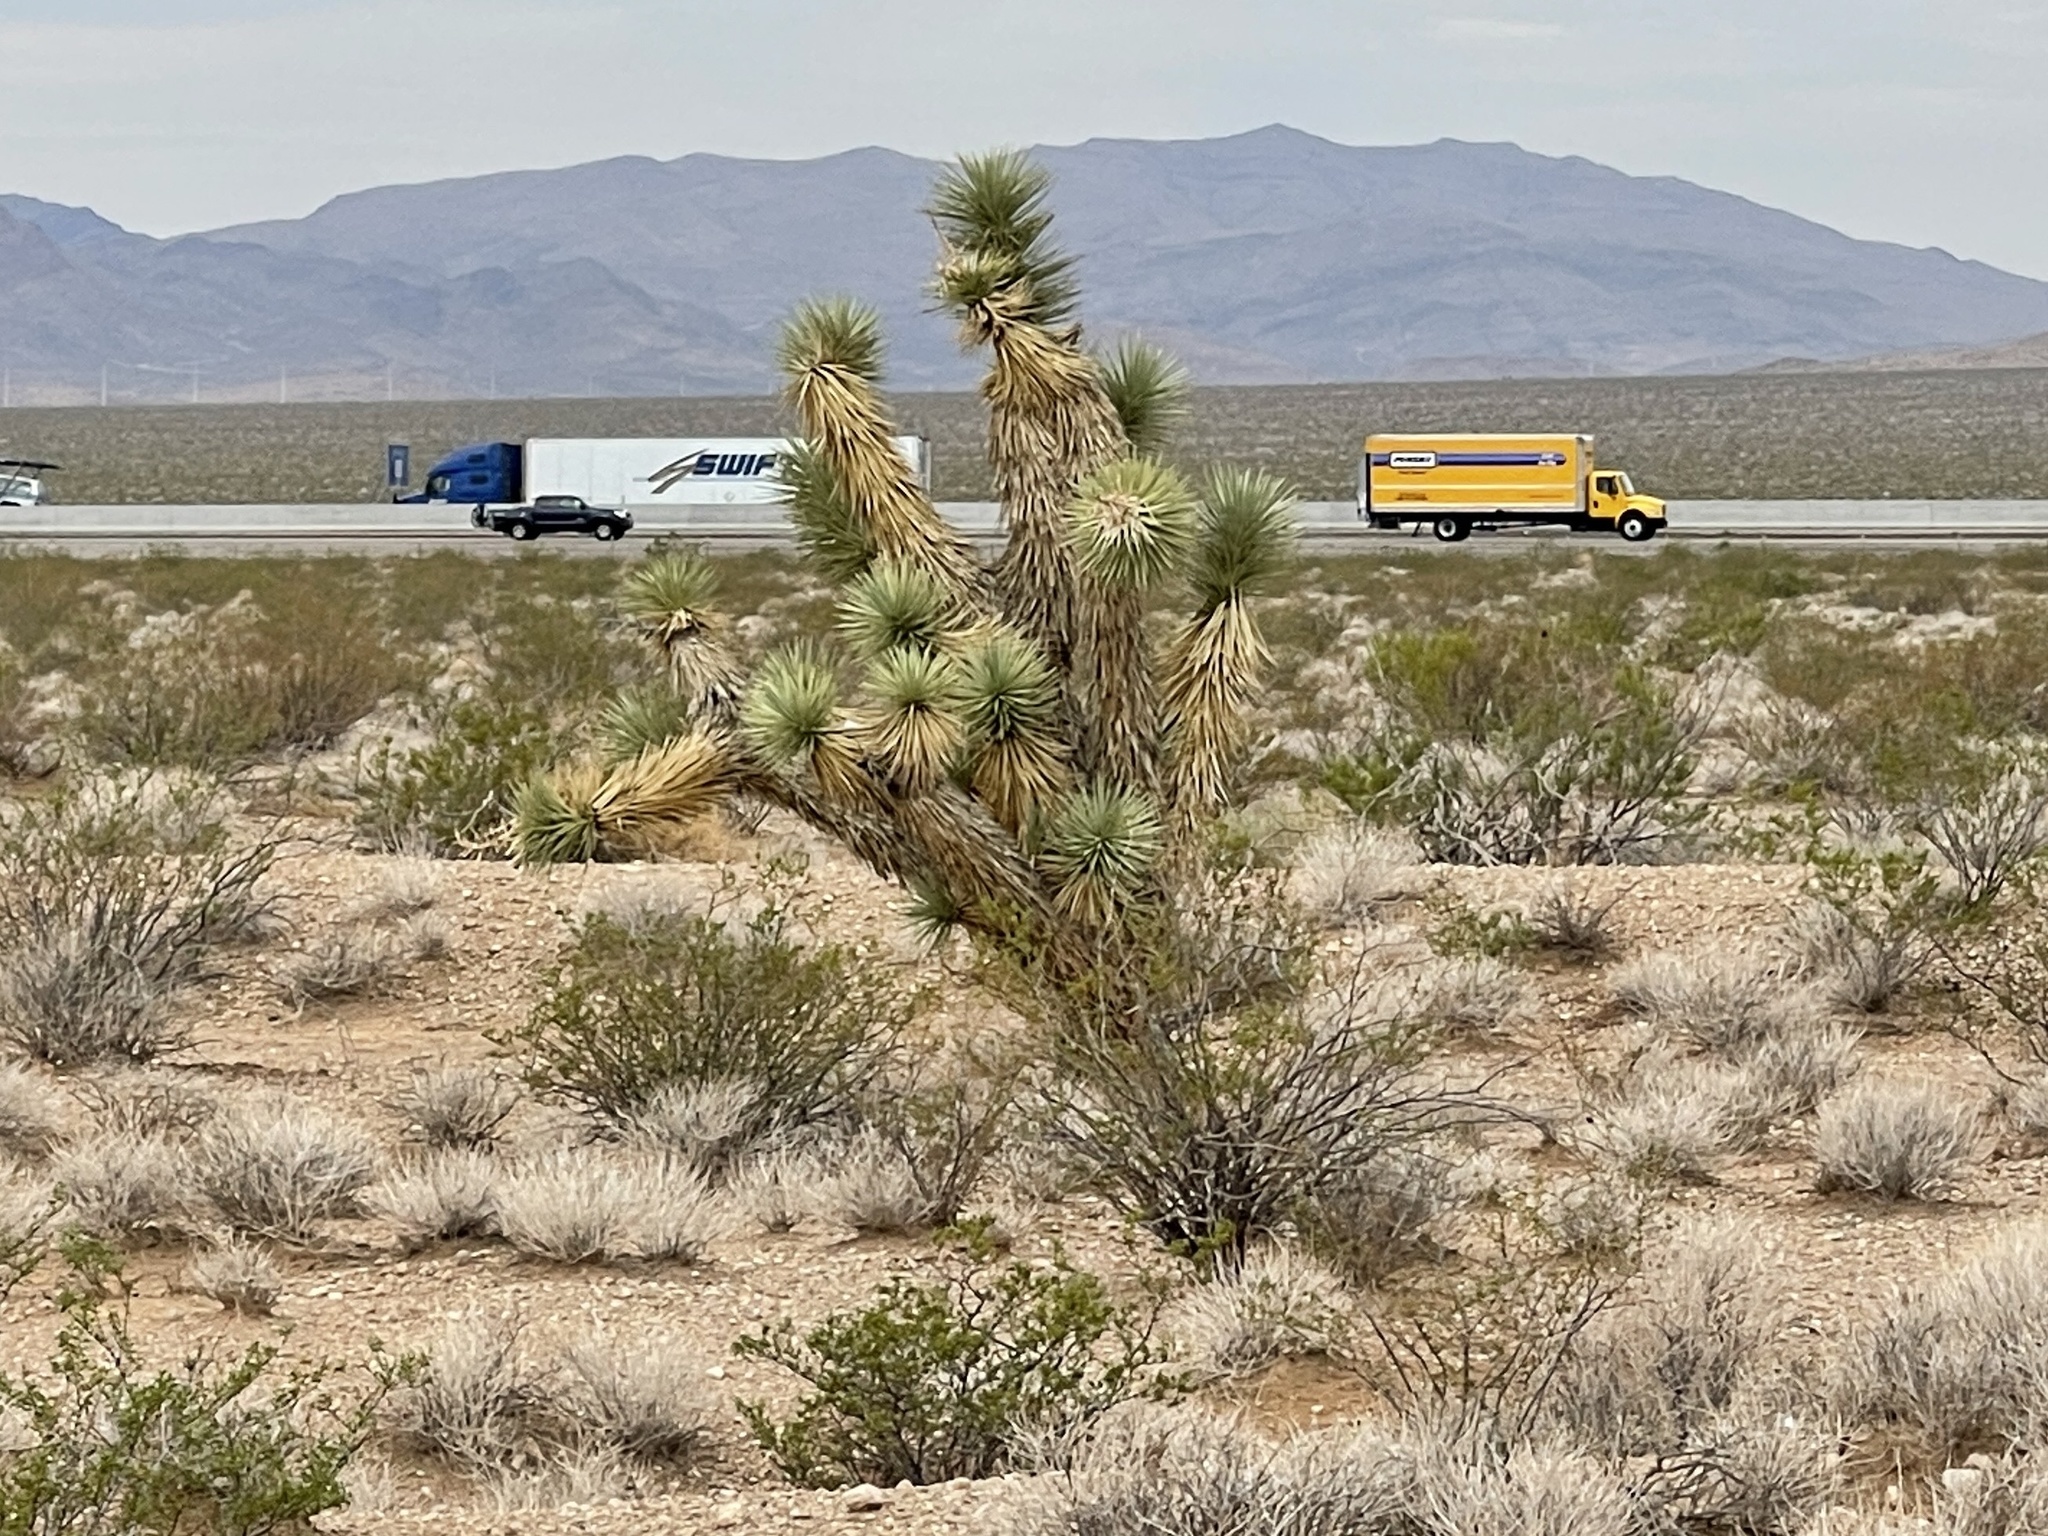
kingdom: Plantae
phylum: Tracheophyta
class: Liliopsida
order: Asparagales
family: Asparagaceae
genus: Yucca
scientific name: Yucca brevifolia
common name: Joshua tree
